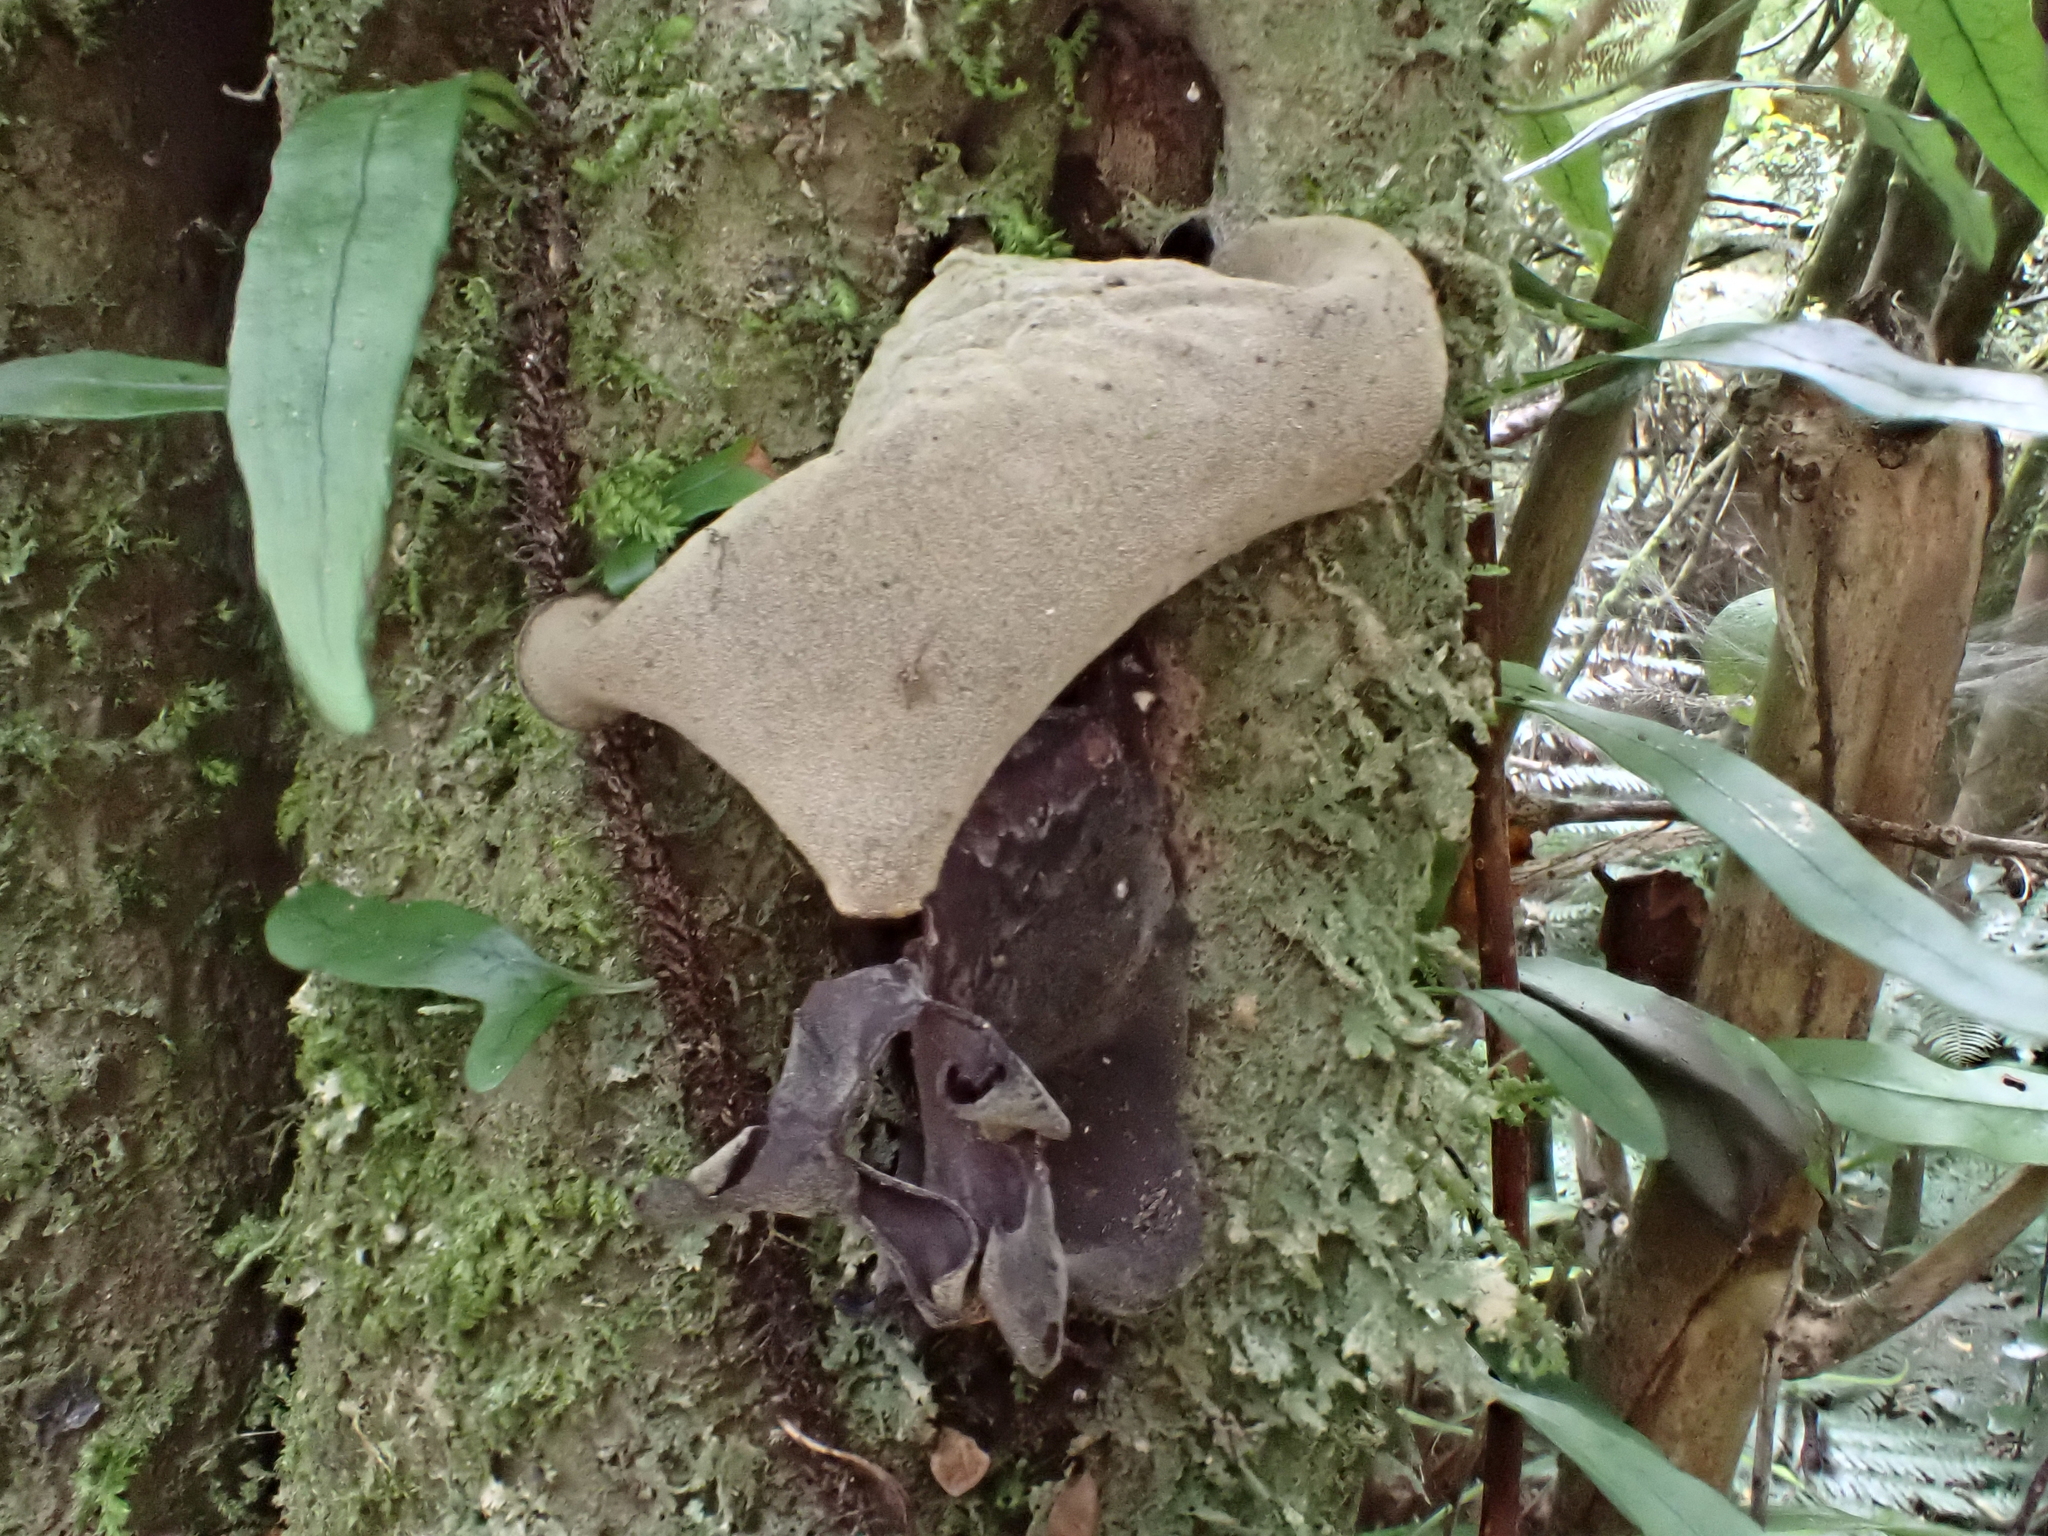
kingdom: Fungi
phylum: Basidiomycota
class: Agaricomycetes
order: Auriculariales
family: Auriculariaceae
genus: Auricularia
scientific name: Auricularia cornea
